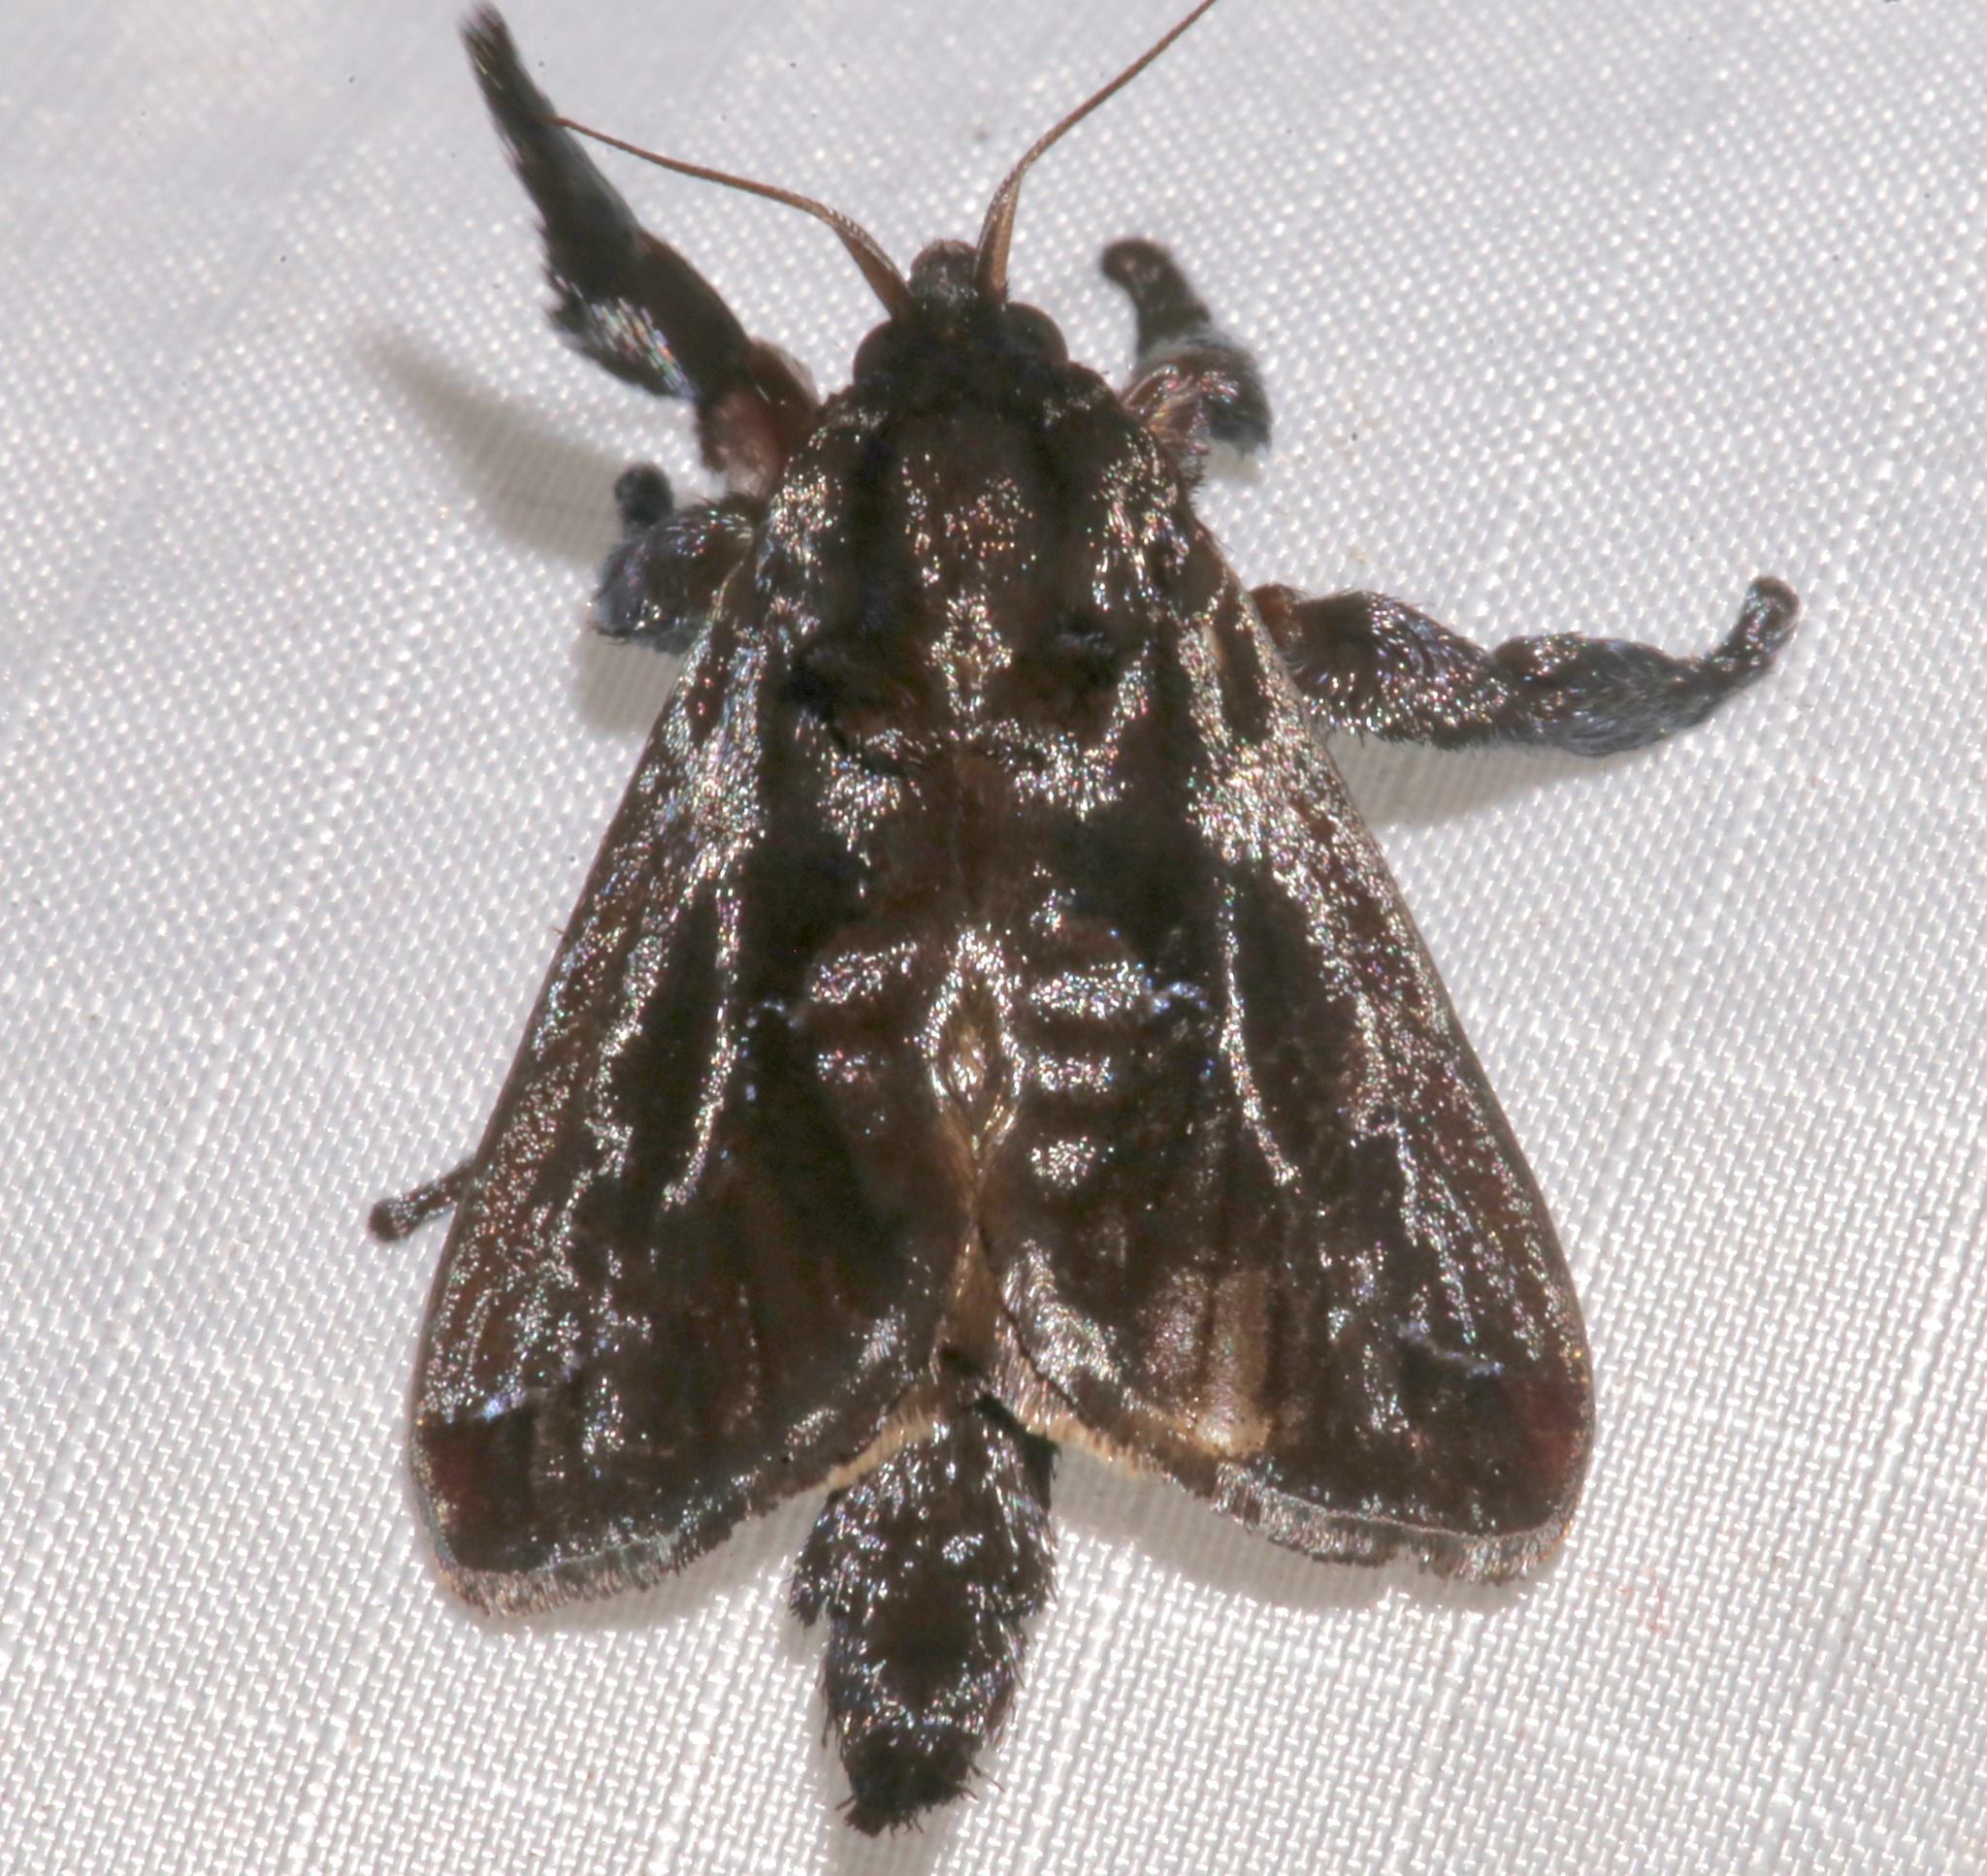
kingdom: Animalia
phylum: Arthropoda
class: Insecta
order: Lepidoptera
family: Limacodidae
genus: Sibine
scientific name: Sibine nesea
